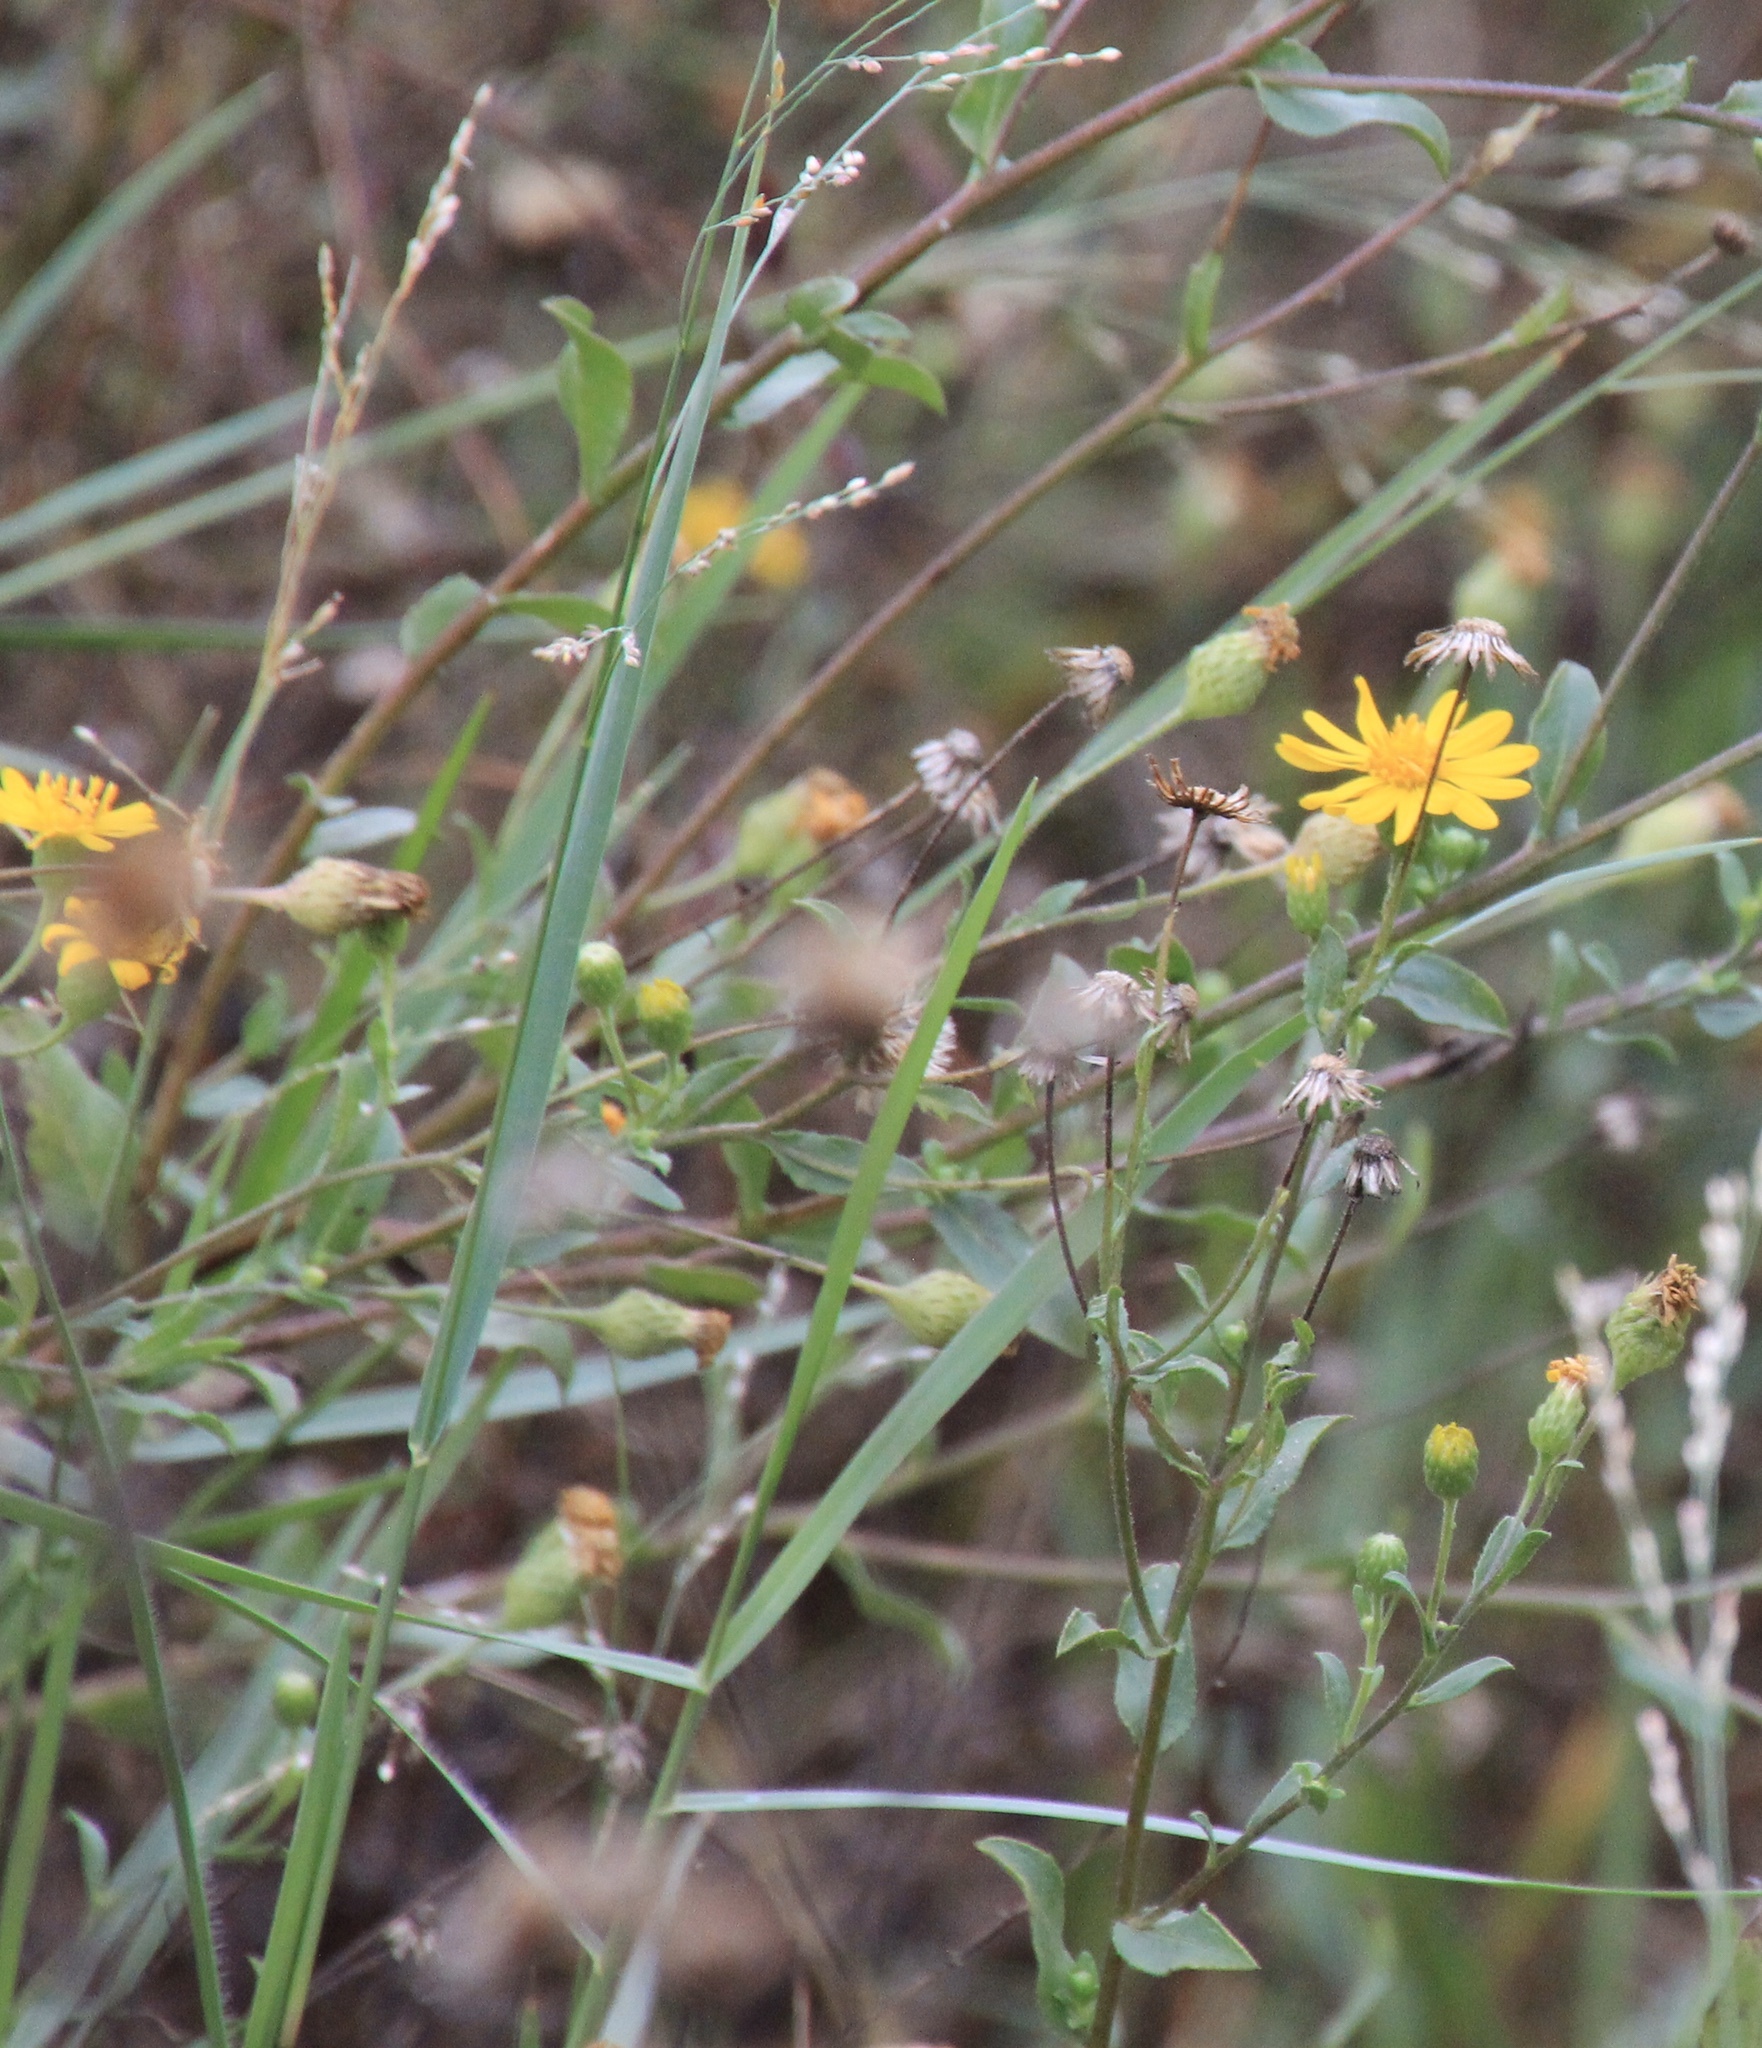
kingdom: Plantae
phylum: Tracheophyta
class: Magnoliopsida
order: Asterales
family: Asteraceae
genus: Heterotheca
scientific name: Heterotheca subaxillaris
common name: Camphorweed
